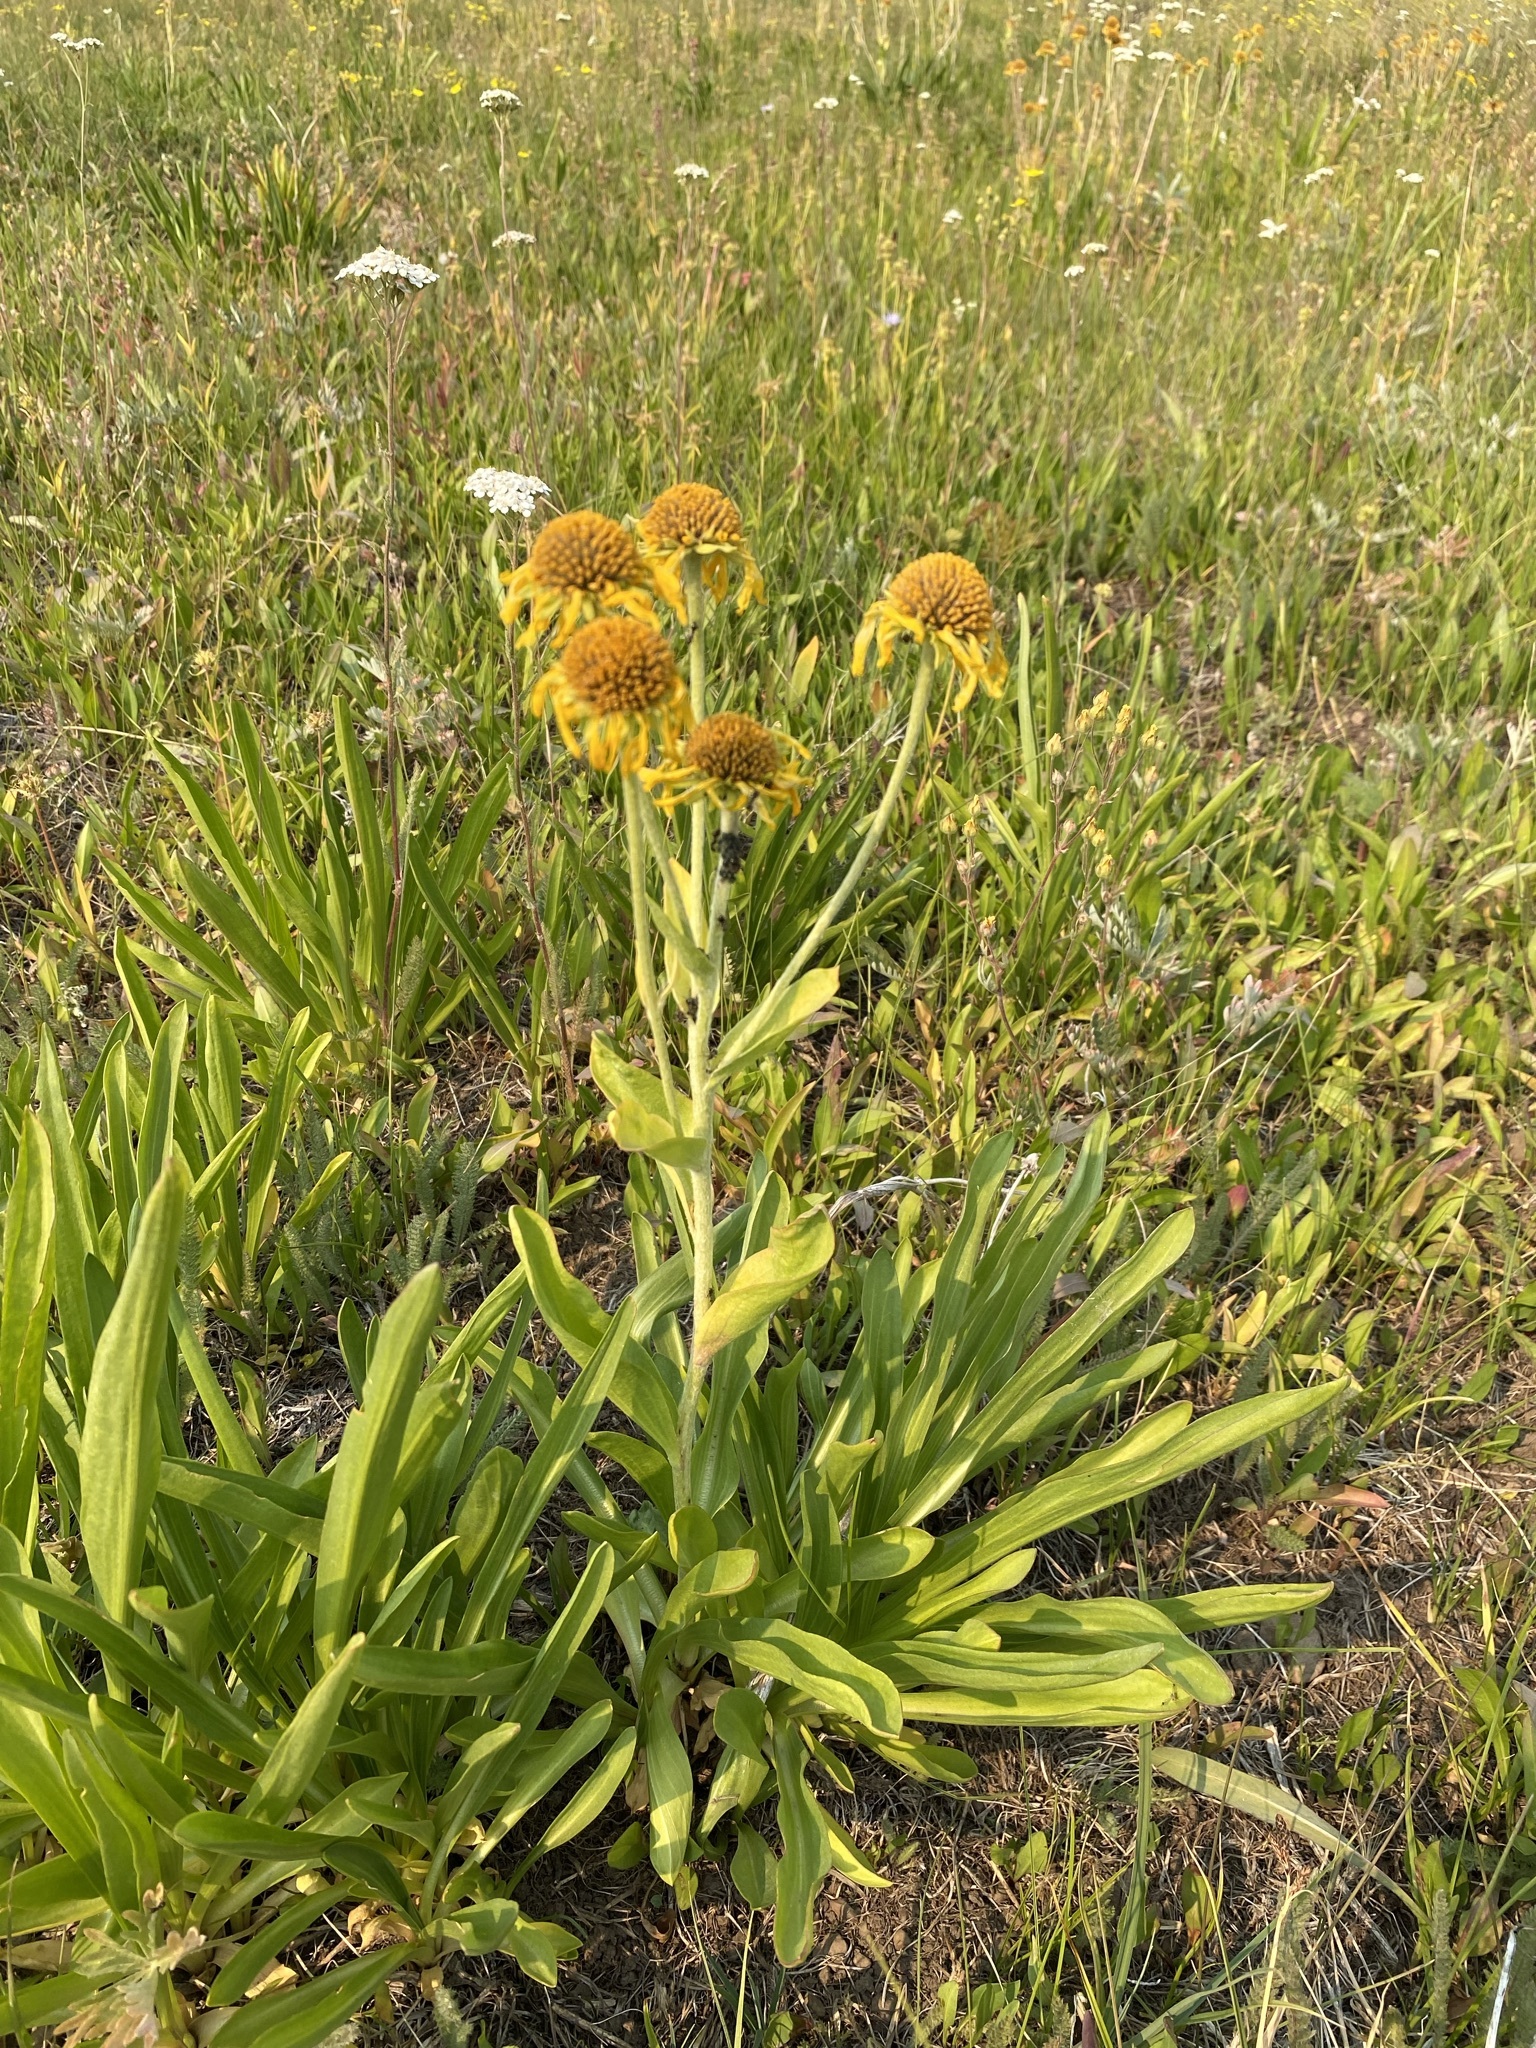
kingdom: Plantae
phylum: Tracheophyta
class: Magnoliopsida
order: Asterales
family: Asteraceae
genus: Hymenoxys
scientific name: Hymenoxys hoopesii
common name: Orange-sneezeweed
